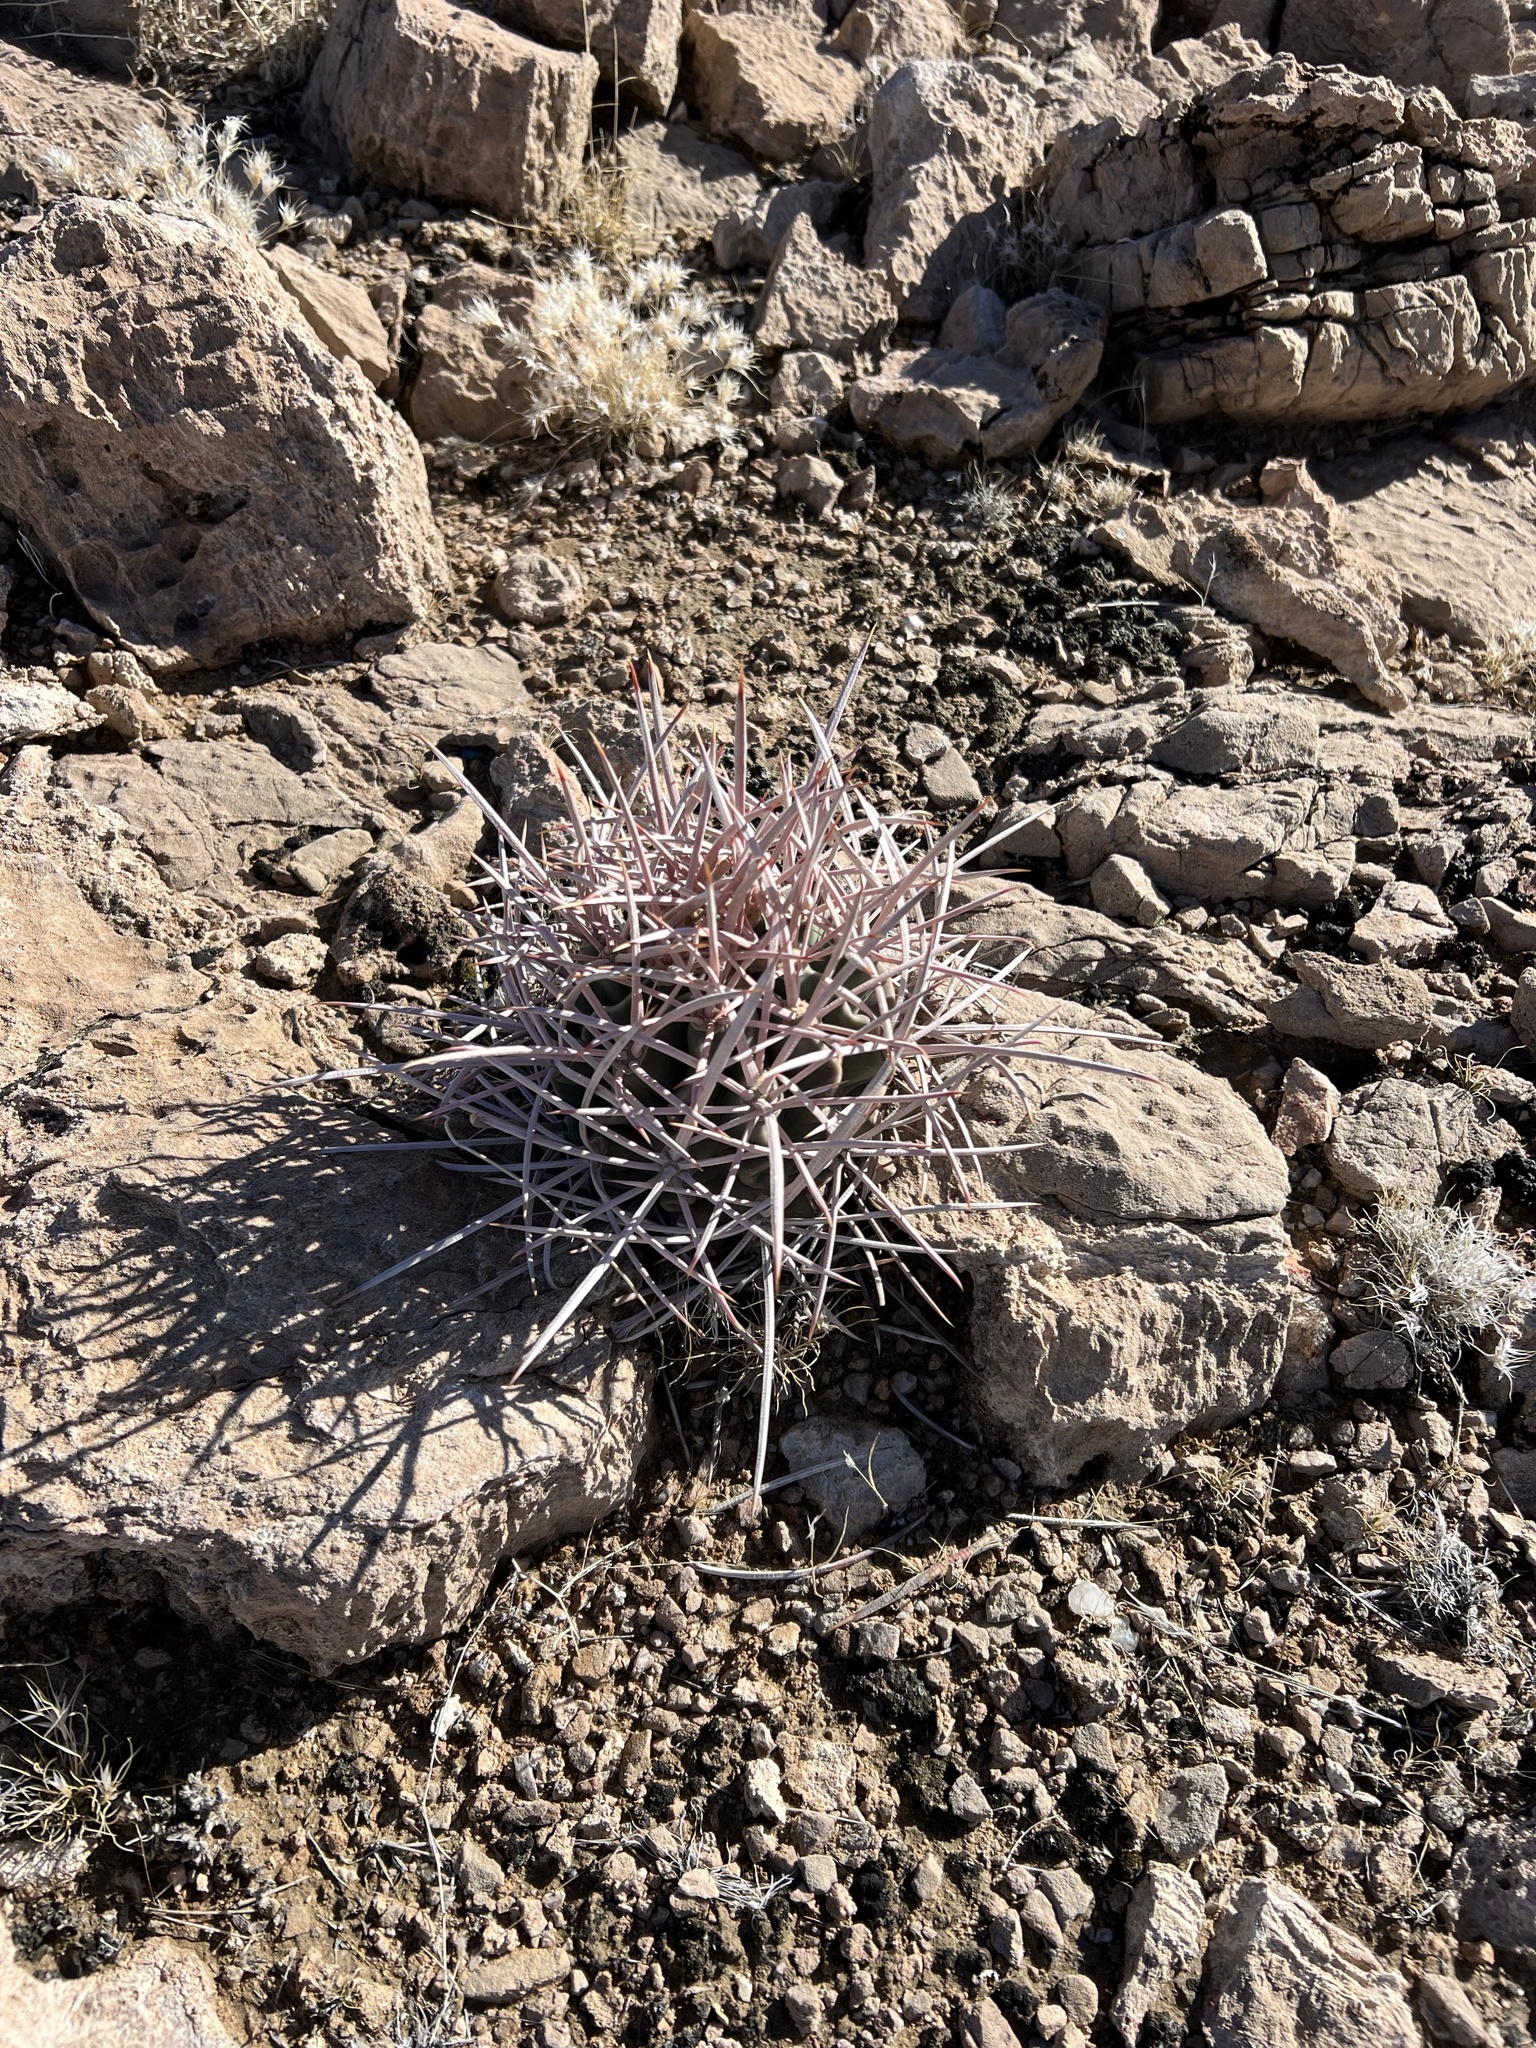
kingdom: Plantae
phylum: Tracheophyta
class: Magnoliopsida
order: Caryophyllales
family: Cactaceae
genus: Echinocactus
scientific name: Echinocactus polycephalus
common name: Cottontop cactus
